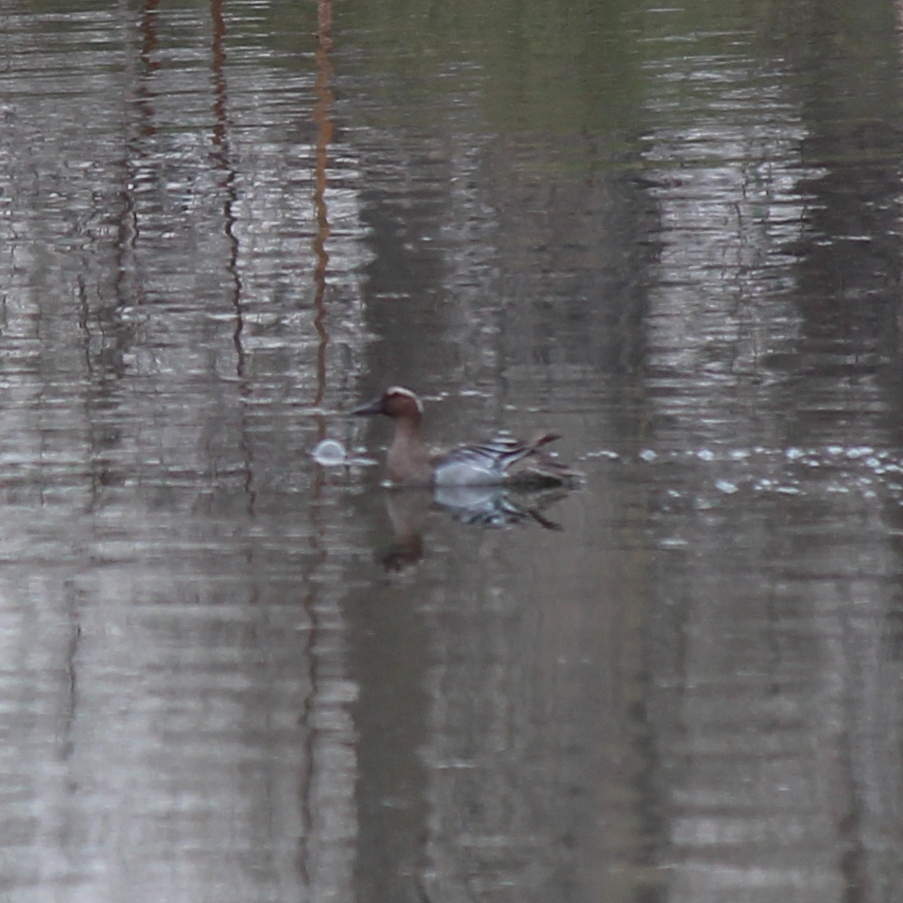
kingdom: Animalia
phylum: Chordata
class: Aves
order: Anseriformes
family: Anatidae
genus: Spatula
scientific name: Spatula querquedula
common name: Garganey
